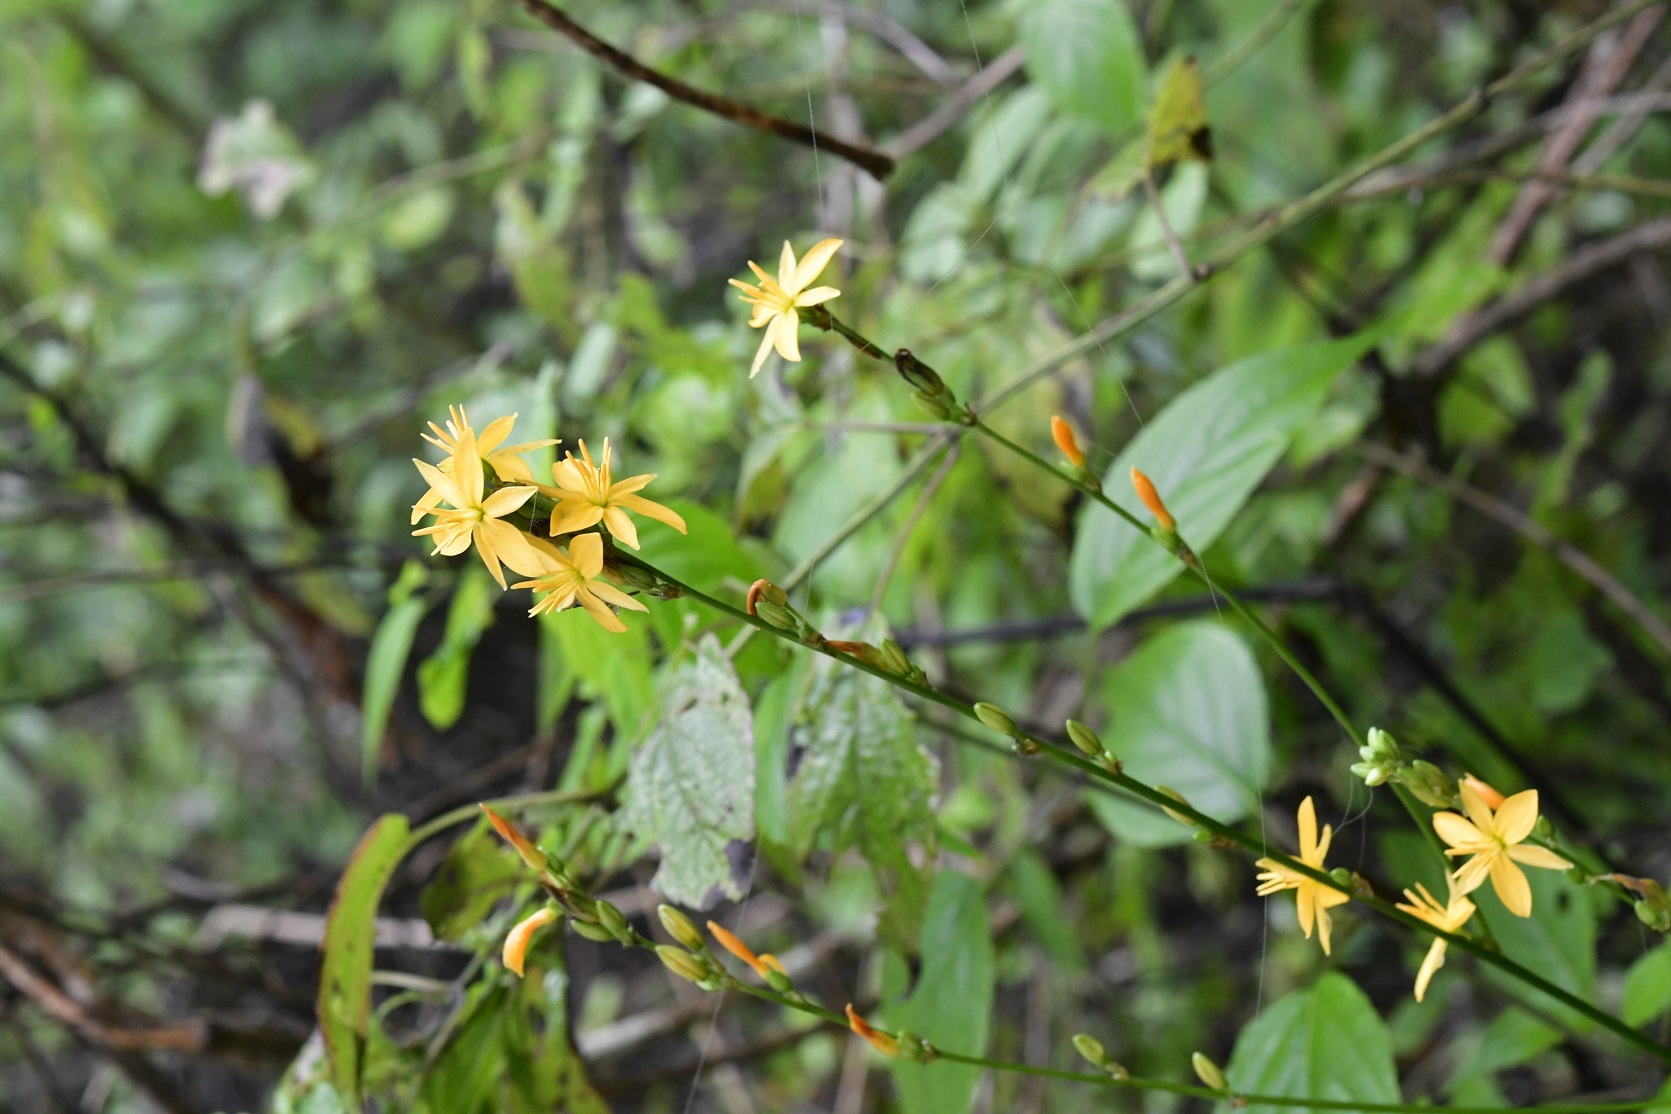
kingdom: Plantae
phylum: Tracheophyta
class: Liliopsida
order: Asparagales
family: Asparagaceae
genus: Echeandia
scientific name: Echeandia breedlovei
